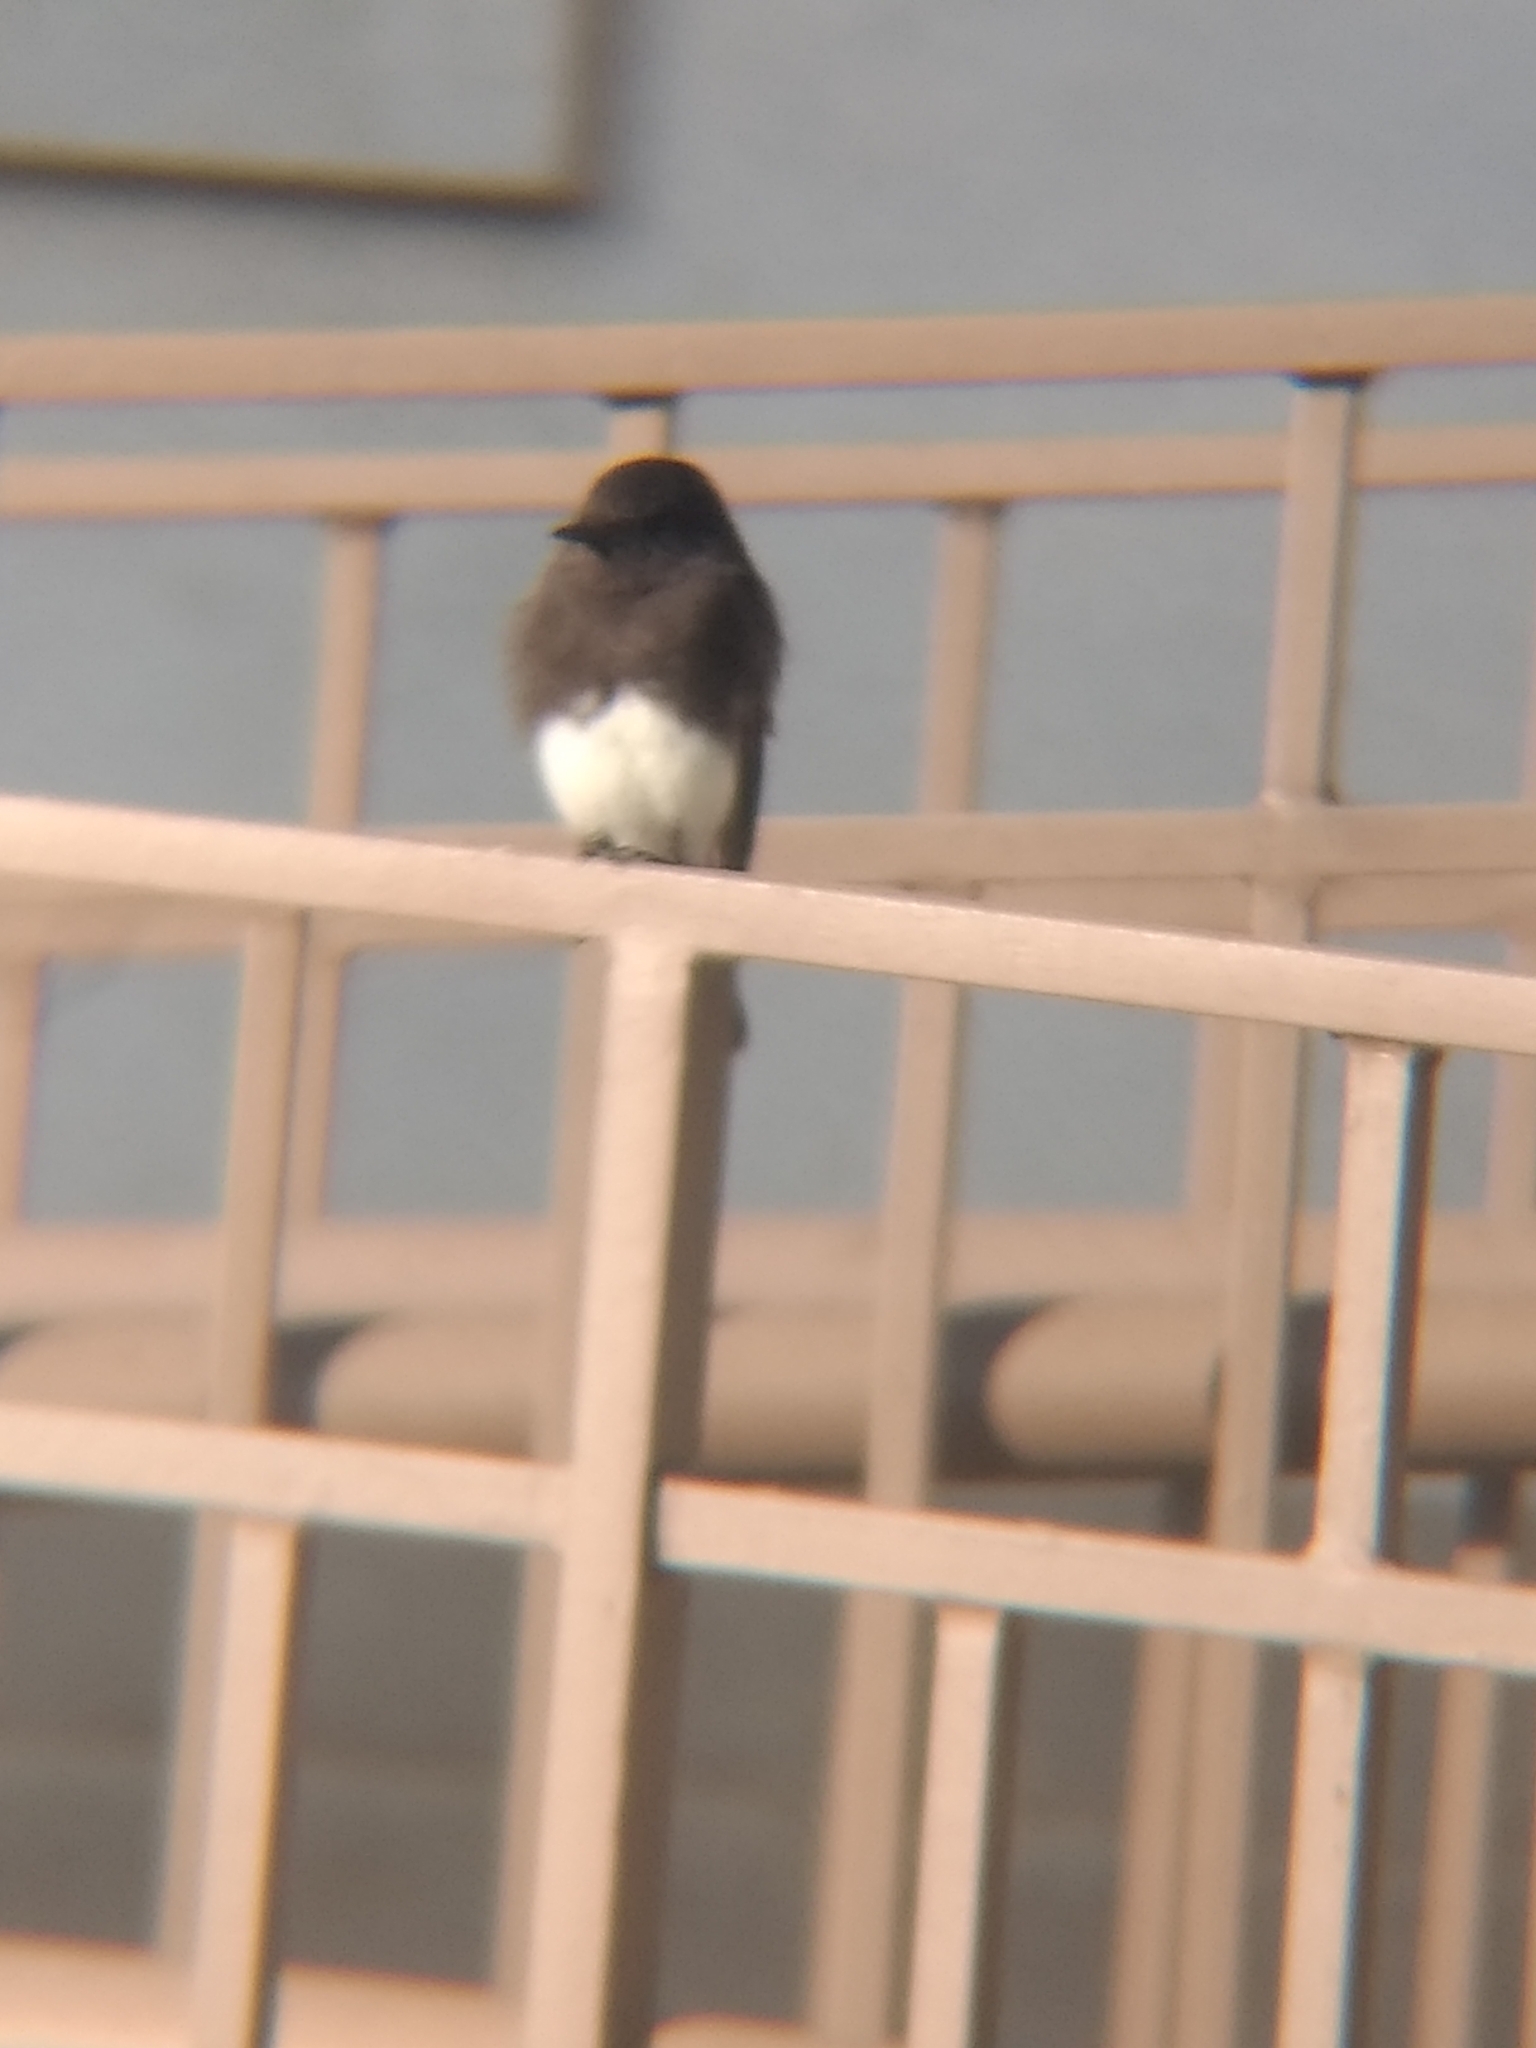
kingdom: Animalia
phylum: Chordata
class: Aves
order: Passeriformes
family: Tyrannidae
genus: Sayornis
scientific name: Sayornis nigricans
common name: Black phoebe
